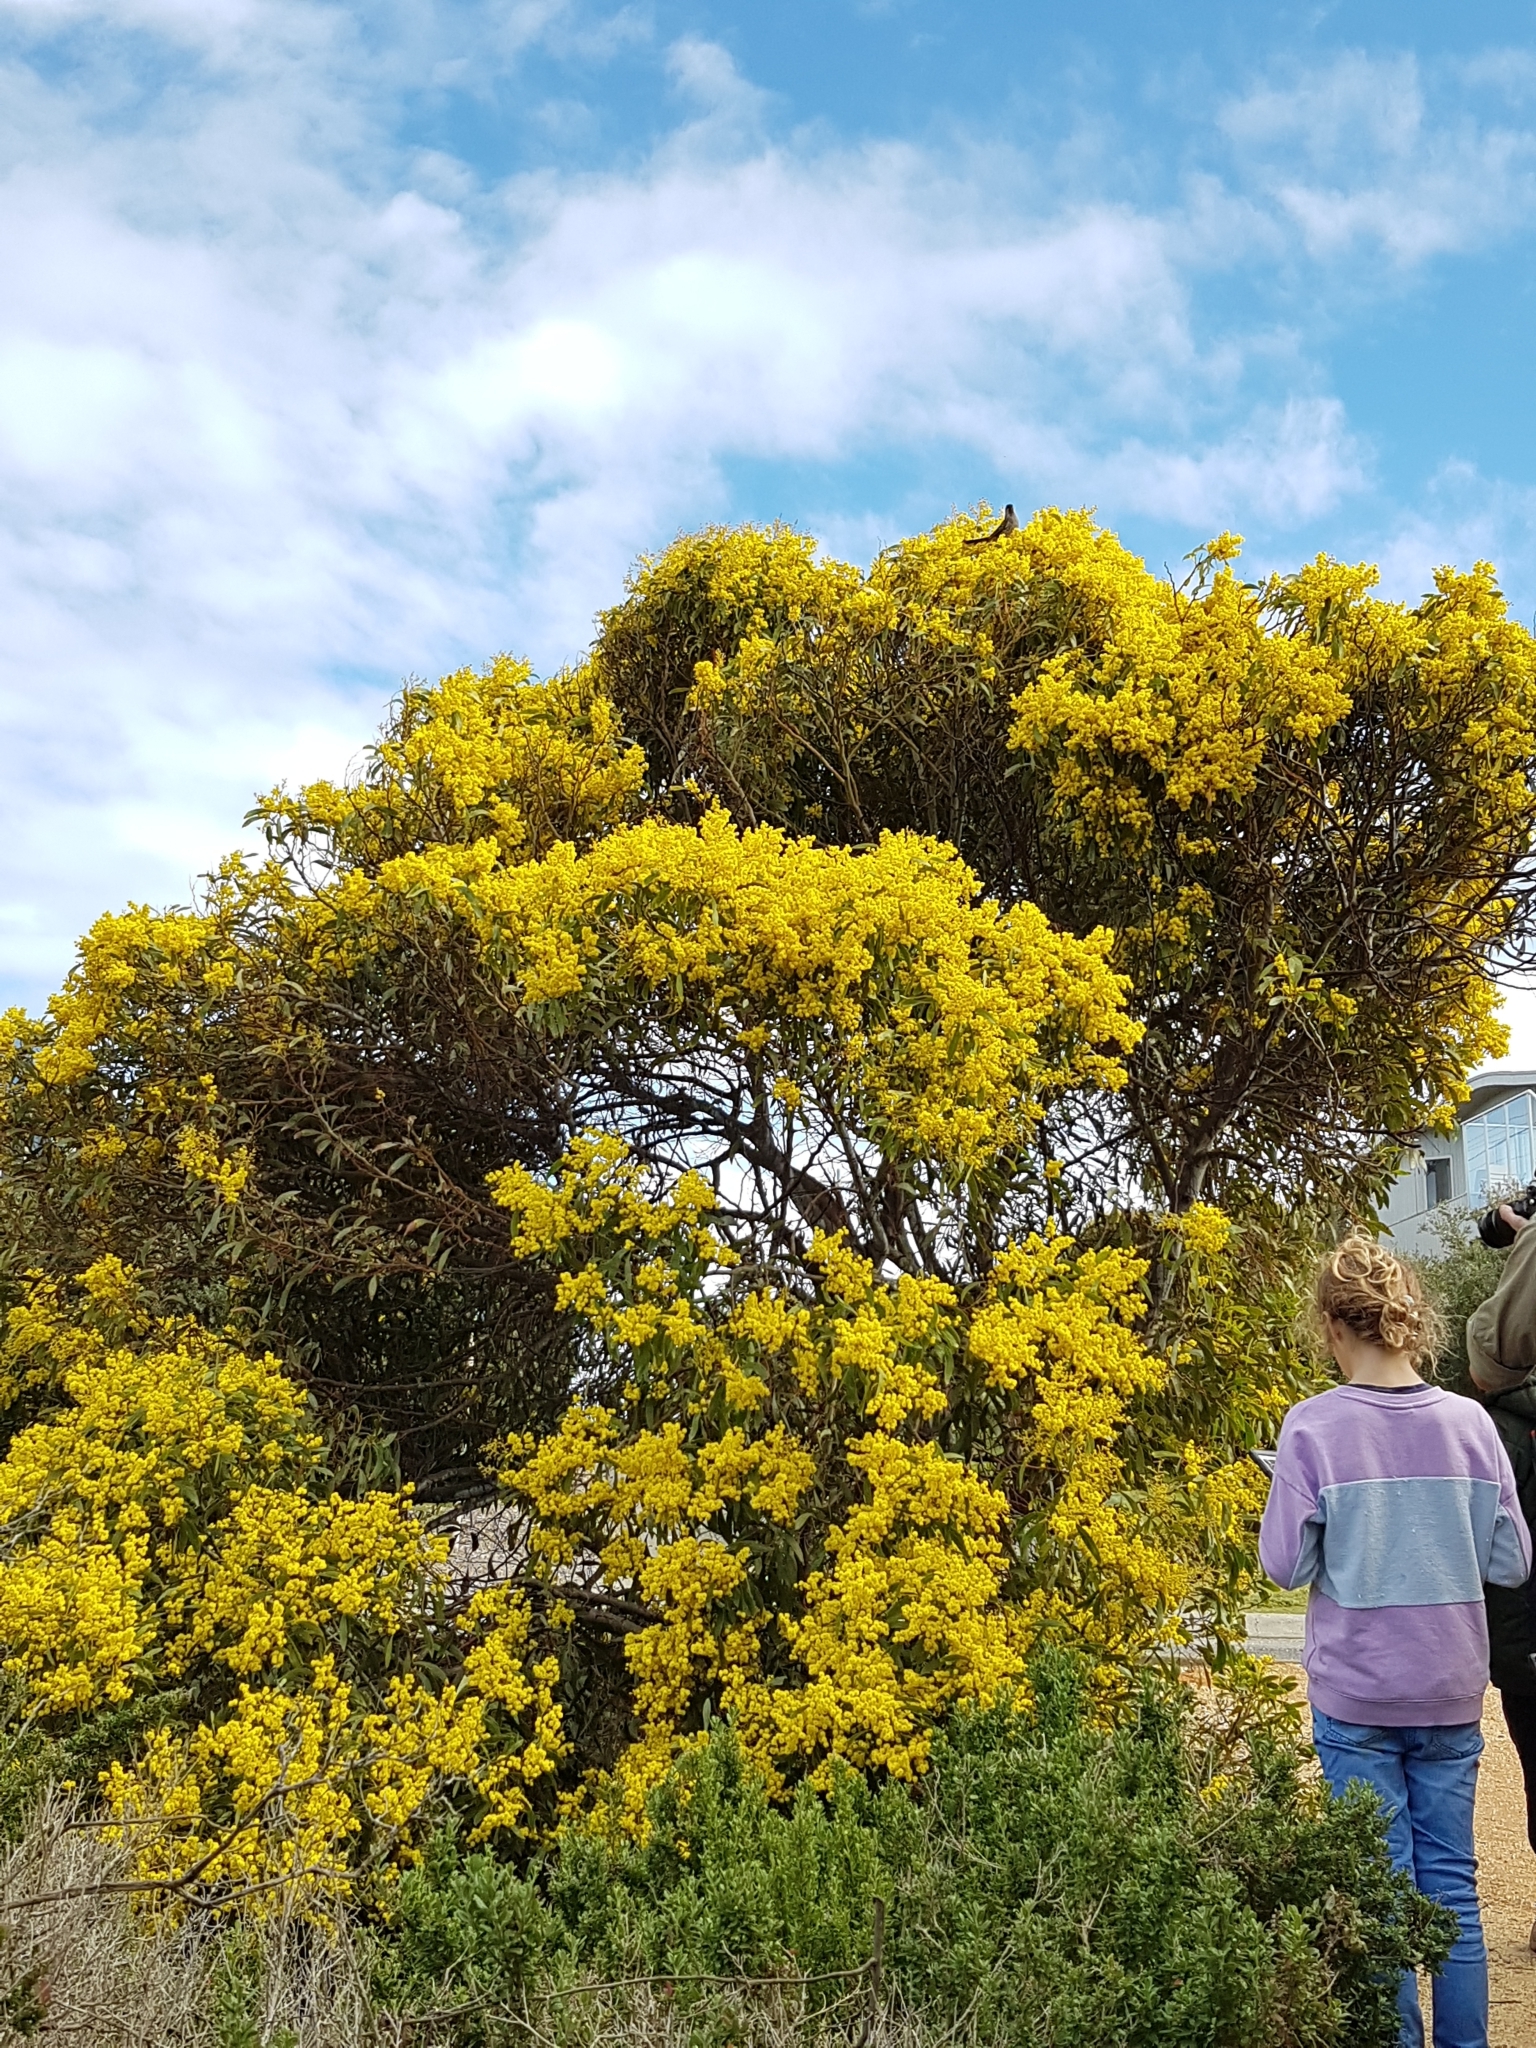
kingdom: Plantae
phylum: Tracheophyta
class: Magnoliopsida
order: Fabales
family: Fabaceae
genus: Acacia
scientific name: Acacia pycnantha
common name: Golden wattle
